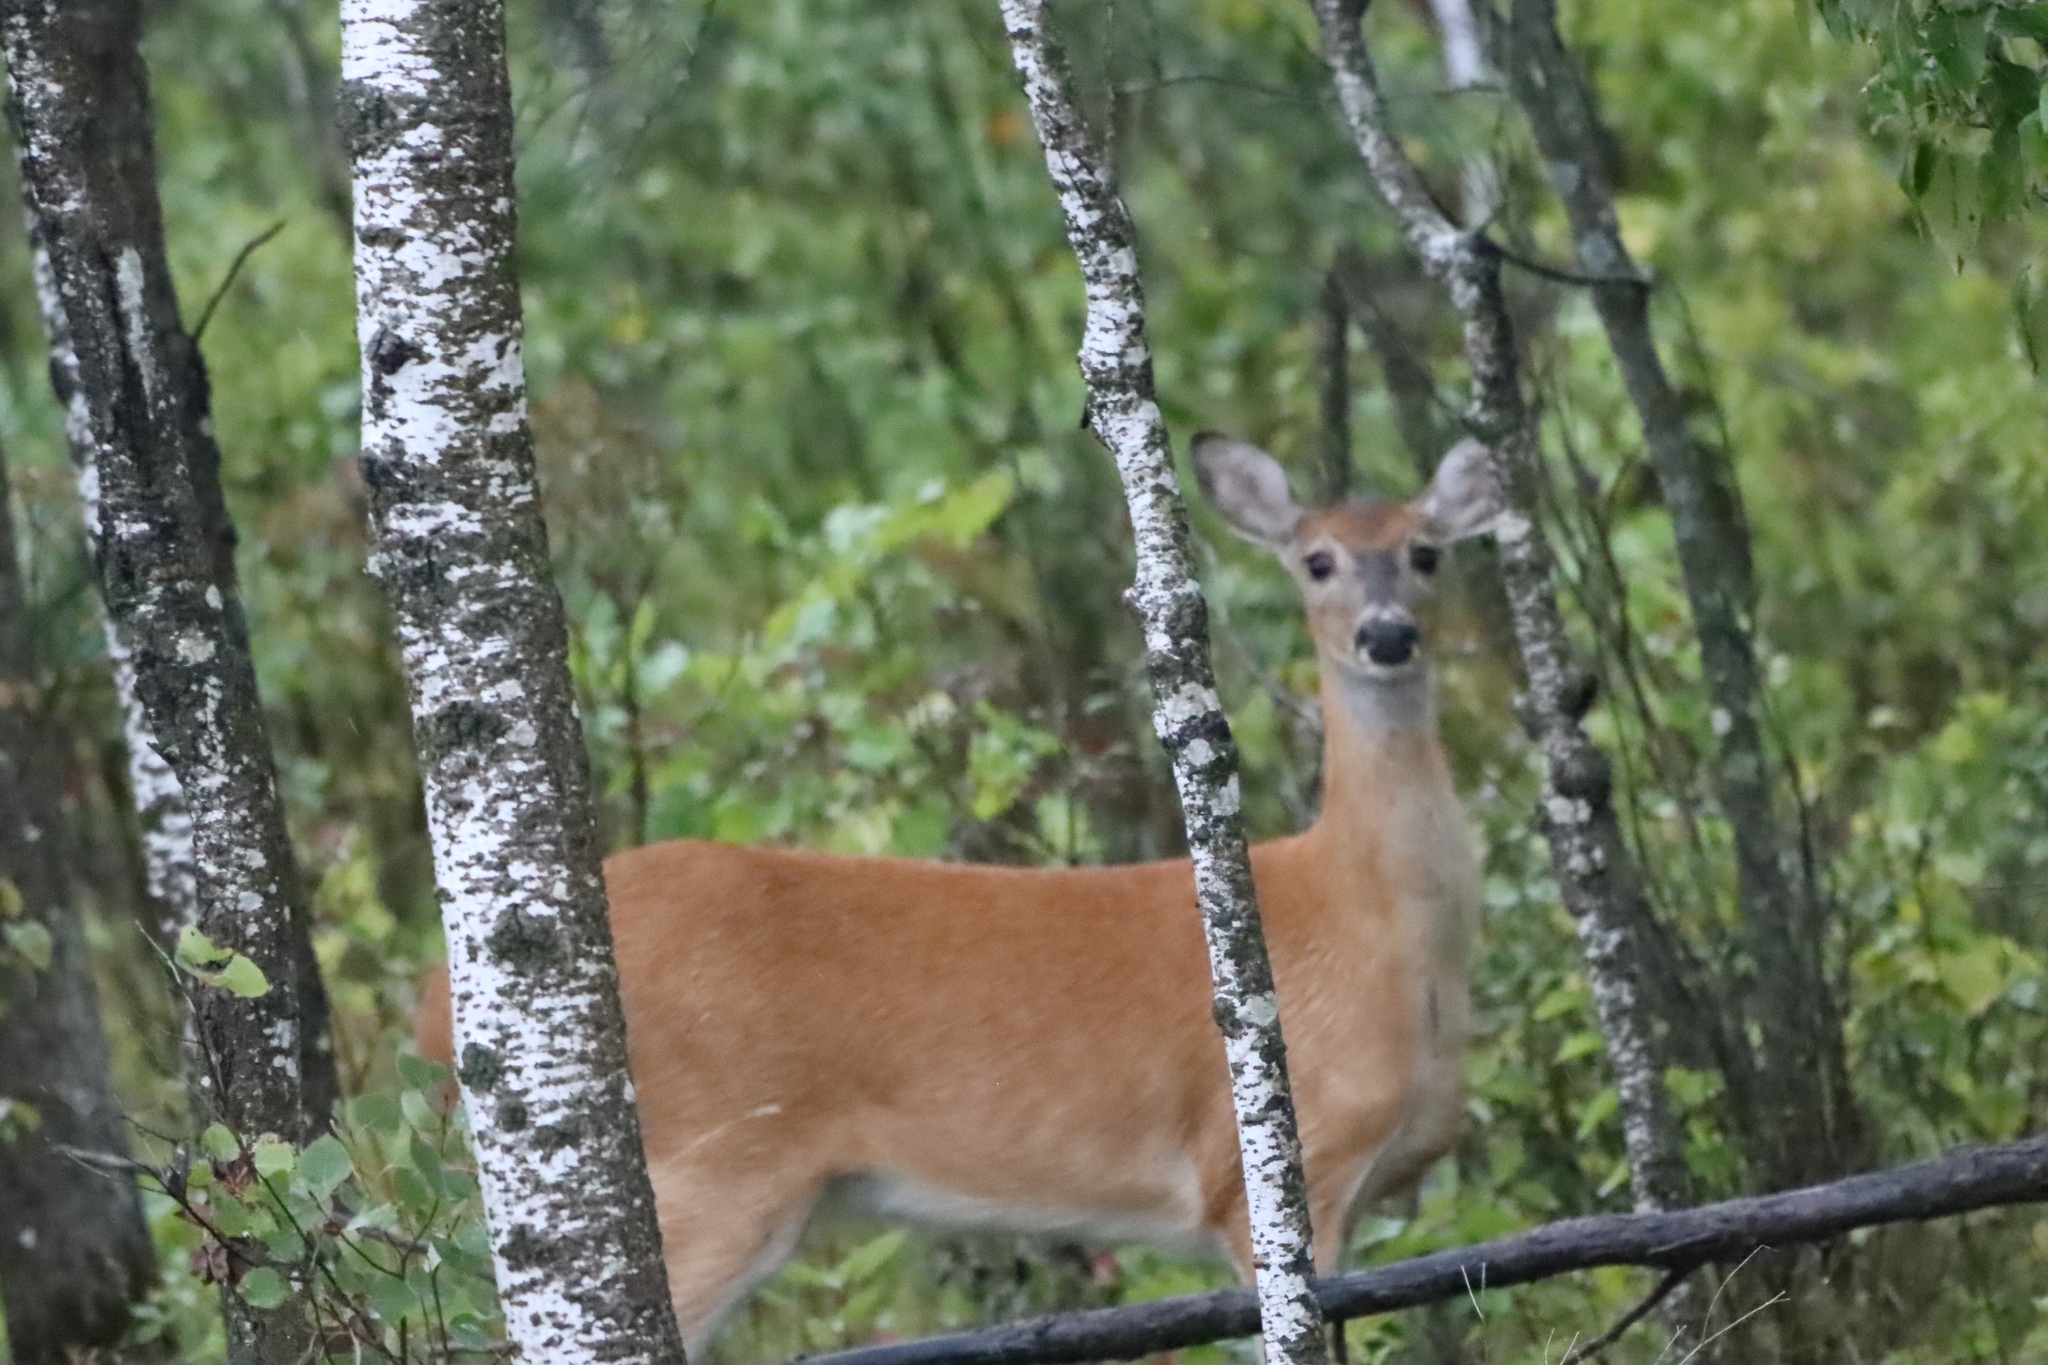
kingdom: Animalia
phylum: Chordata
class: Mammalia
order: Artiodactyla
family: Cervidae
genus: Odocoileus
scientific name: Odocoileus virginianus
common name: White-tailed deer
